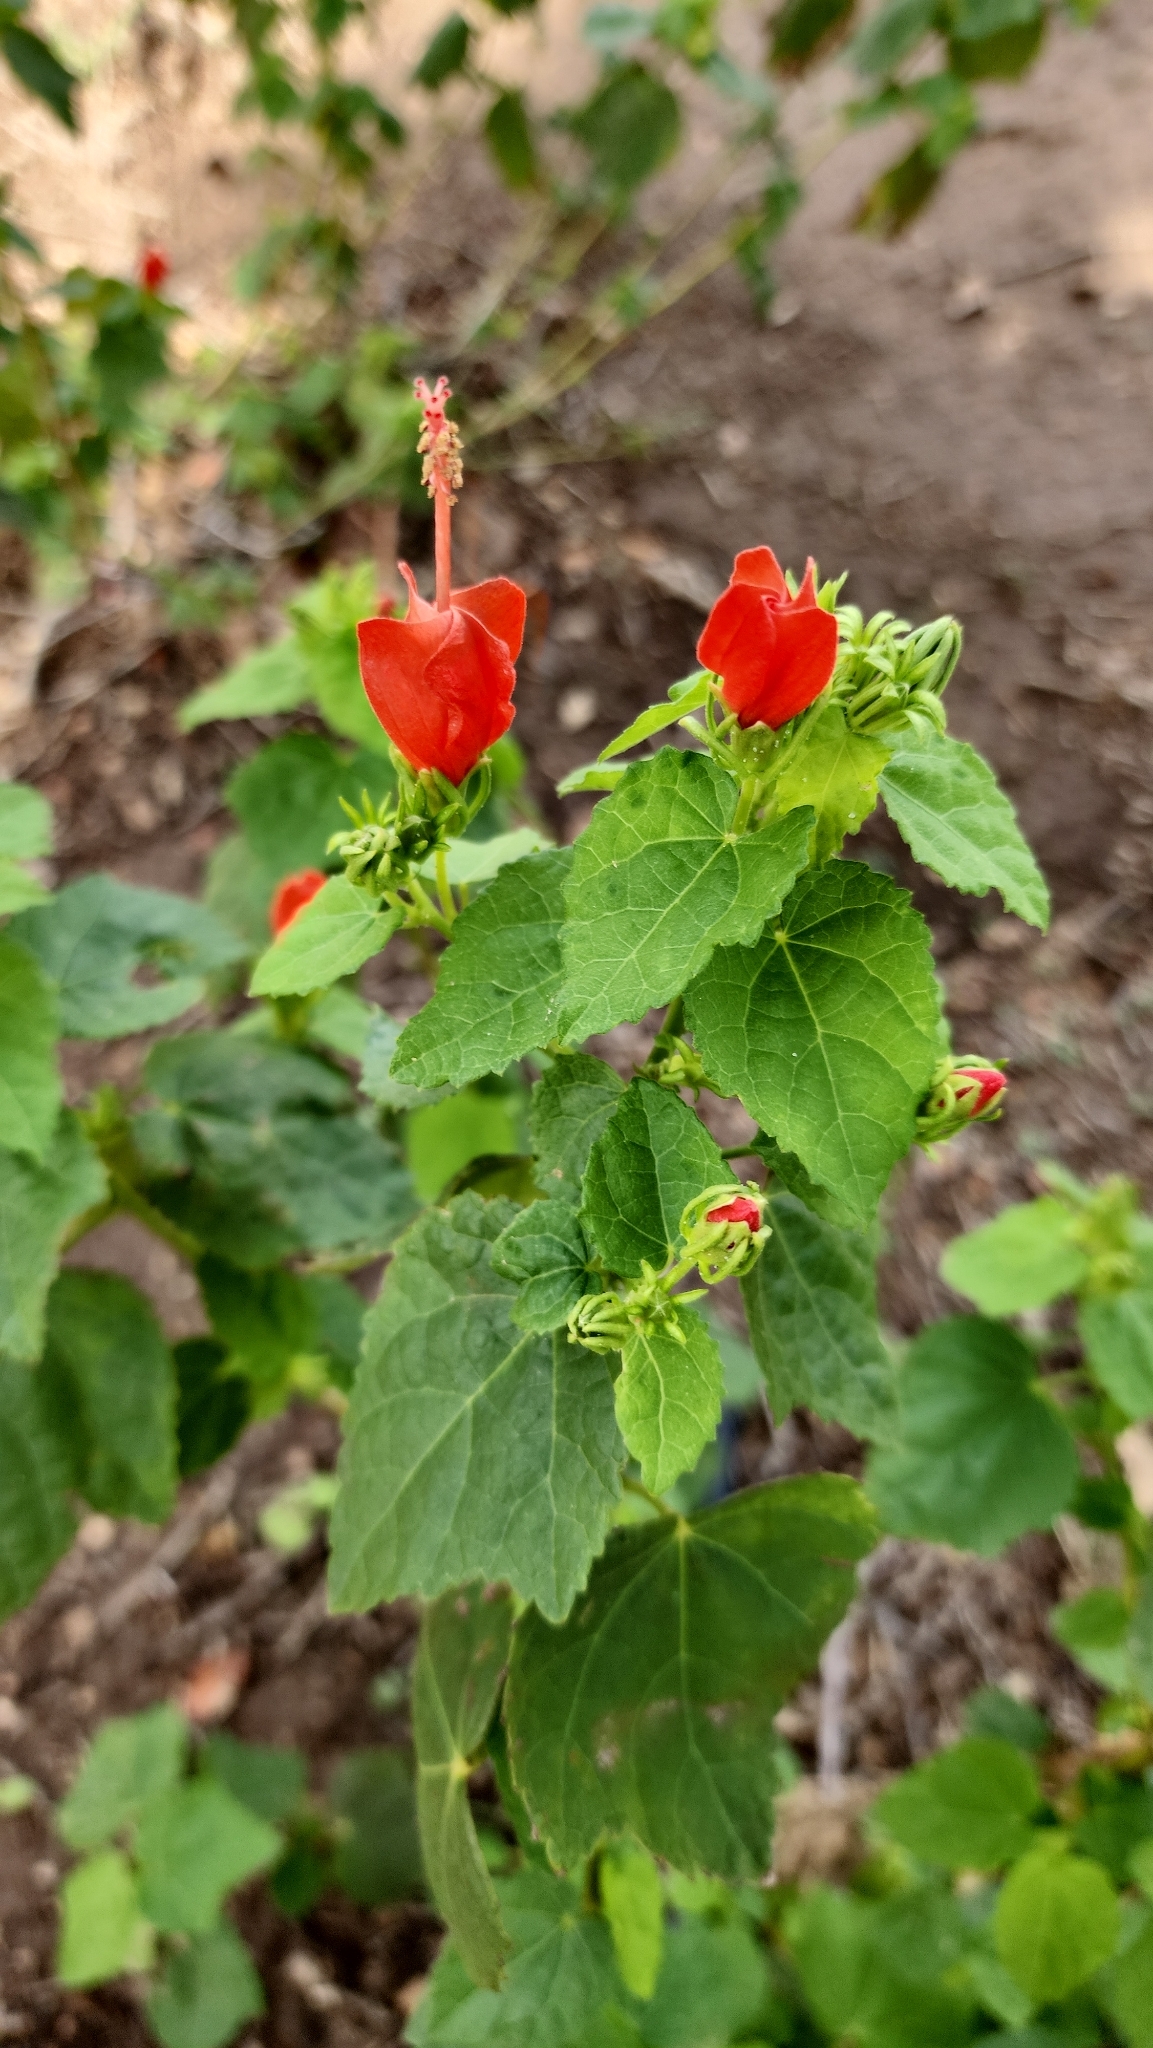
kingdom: Plantae
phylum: Tracheophyta
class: Magnoliopsida
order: Malvales
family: Malvaceae
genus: Malvaviscus
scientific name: Malvaviscus arboreus
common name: Wax mallow
